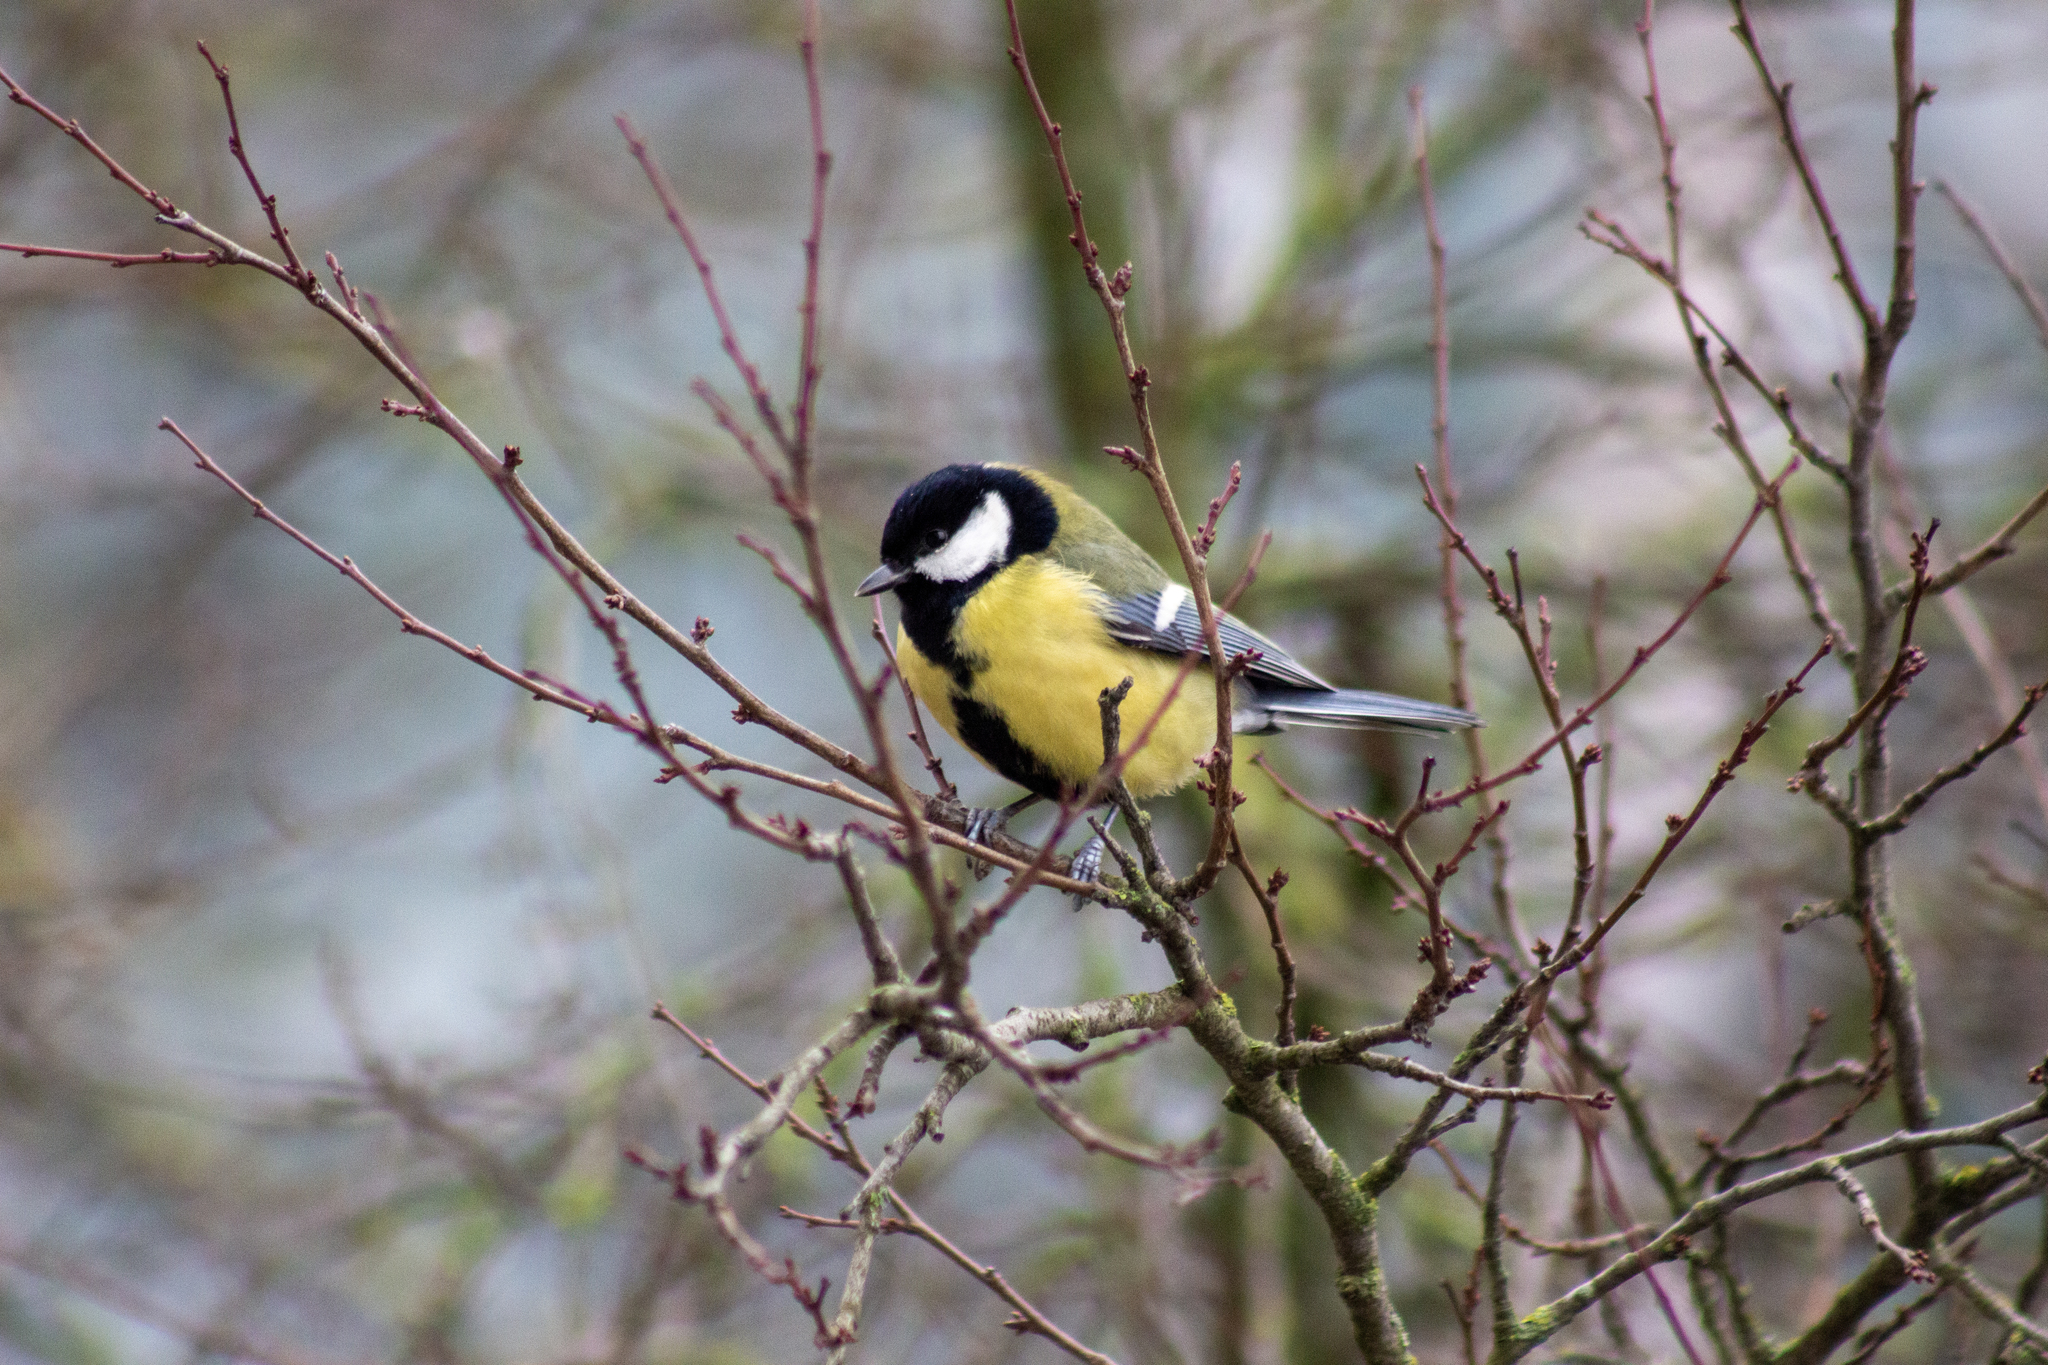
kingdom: Animalia
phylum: Chordata
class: Aves
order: Passeriformes
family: Paridae
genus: Parus
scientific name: Parus major
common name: Great tit
